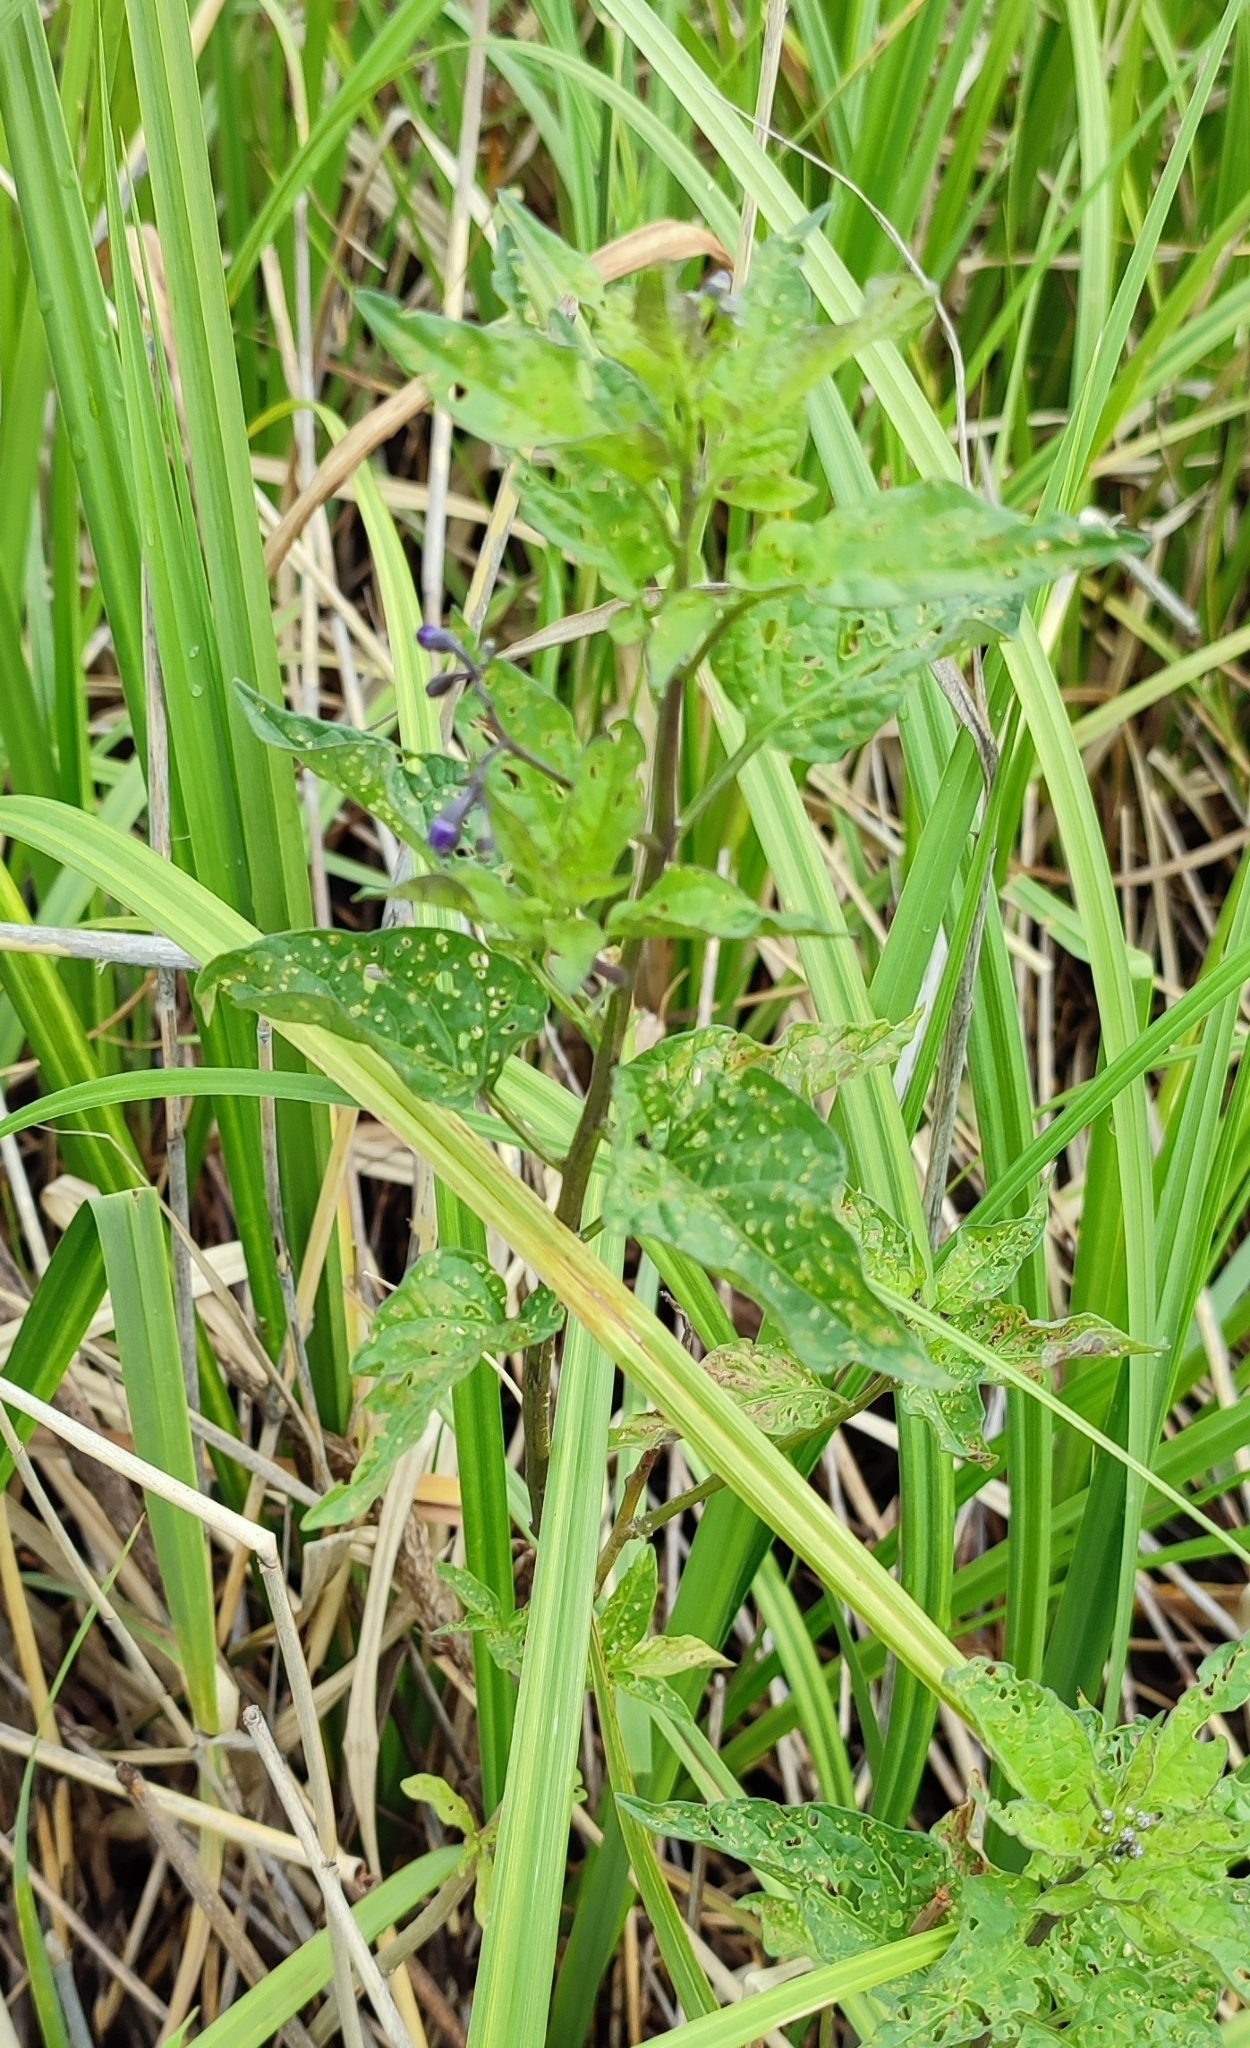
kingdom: Plantae
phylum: Tracheophyta
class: Magnoliopsida
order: Solanales
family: Solanaceae
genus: Solanum
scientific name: Solanum dulcamara
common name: Climbing nightshade
